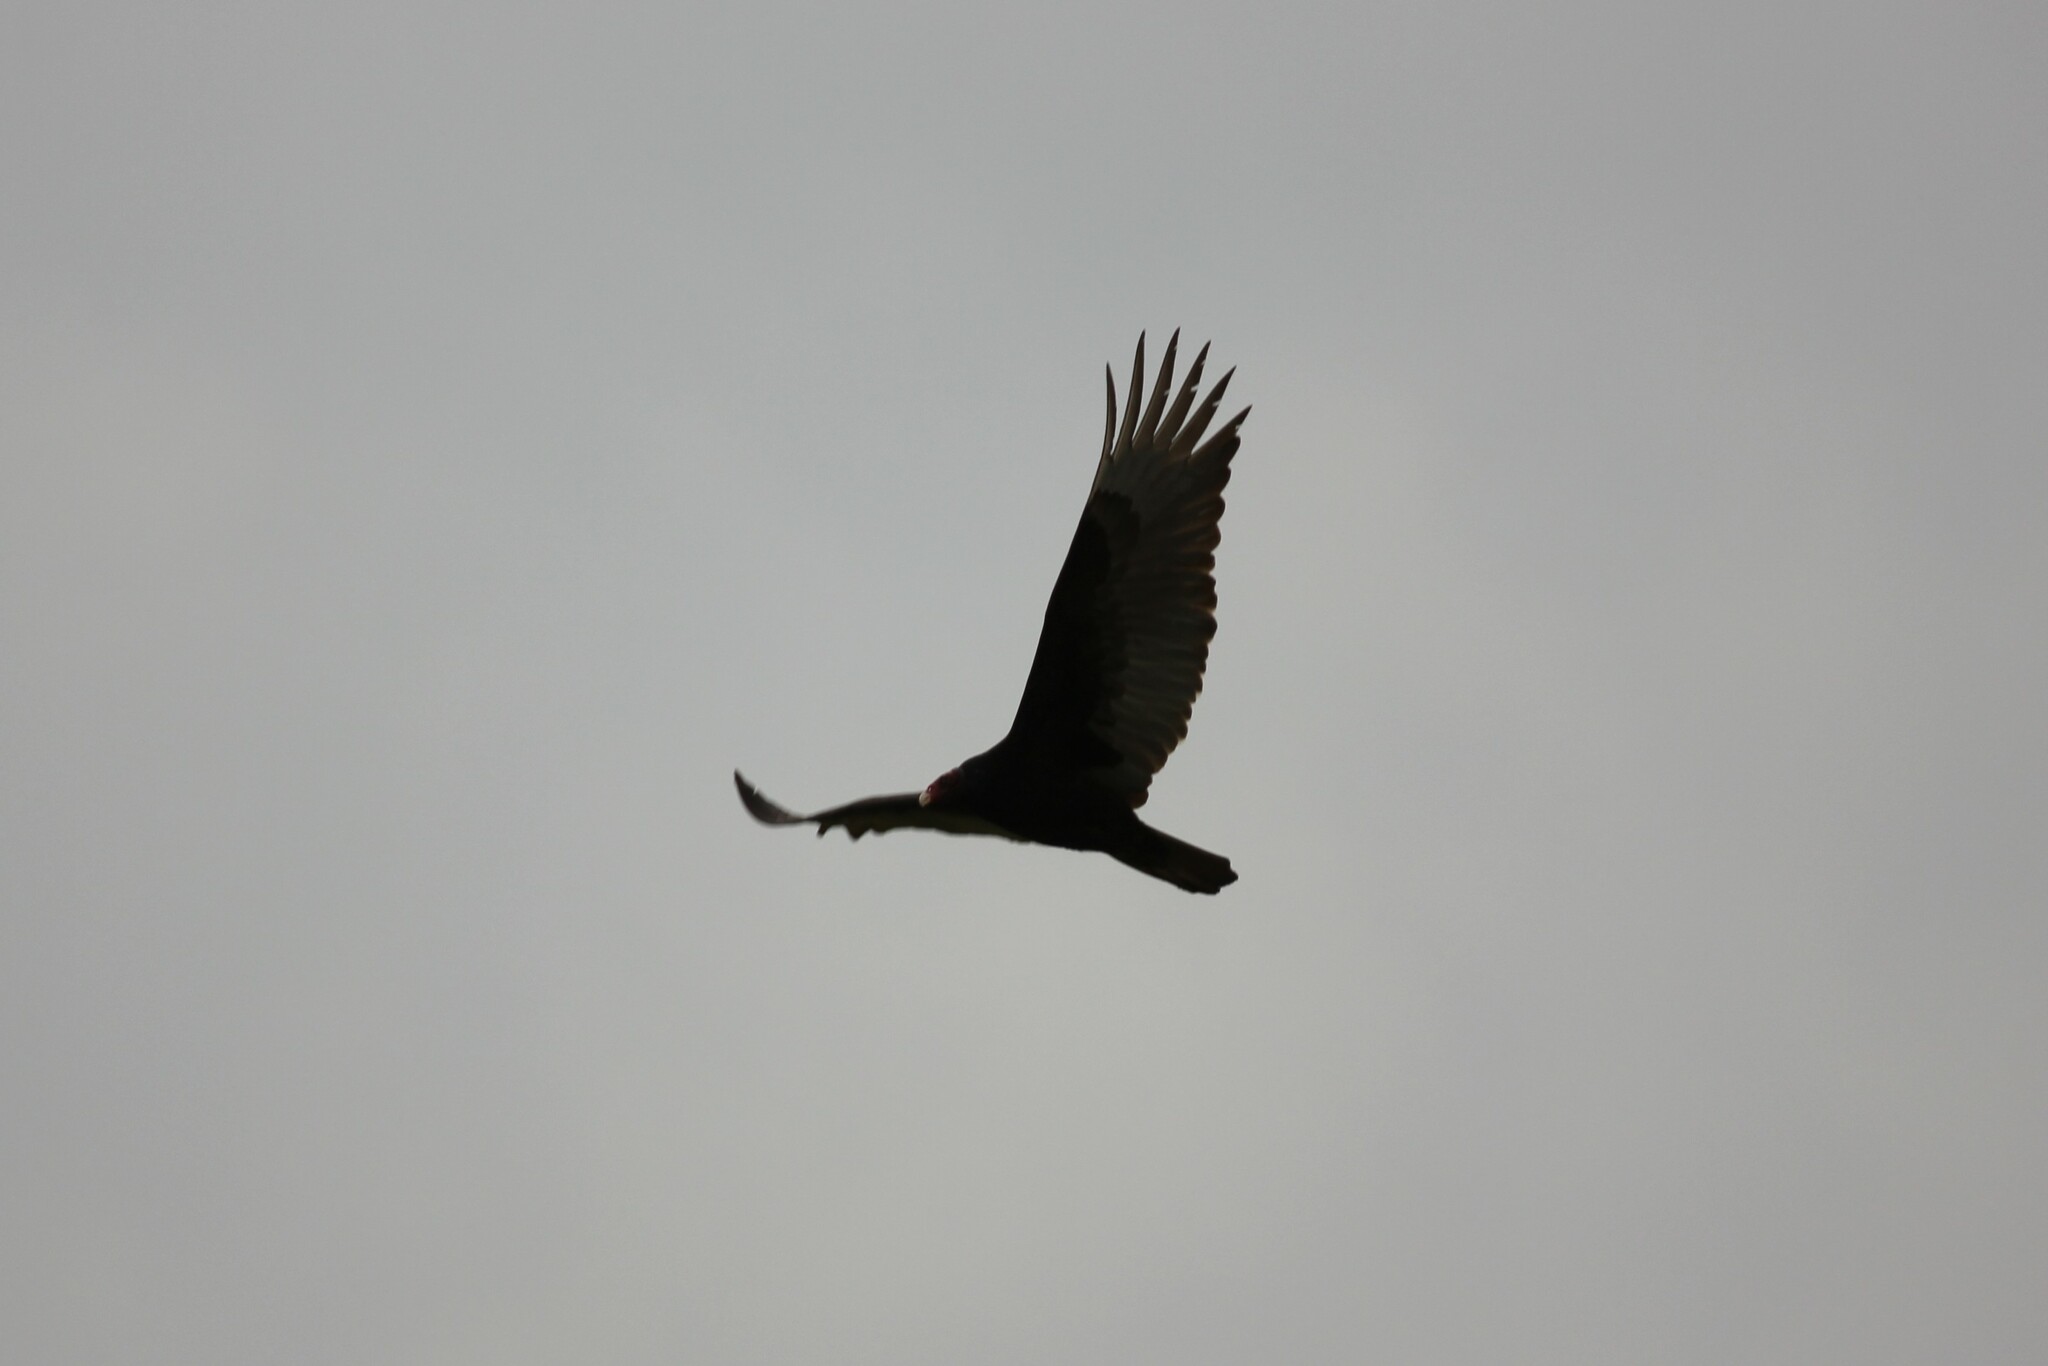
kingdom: Animalia
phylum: Chordata
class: Aves
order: Accipitriformes
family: Cathartidae
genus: Cathartes
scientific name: Cathartes aura
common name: Turkey vulture
